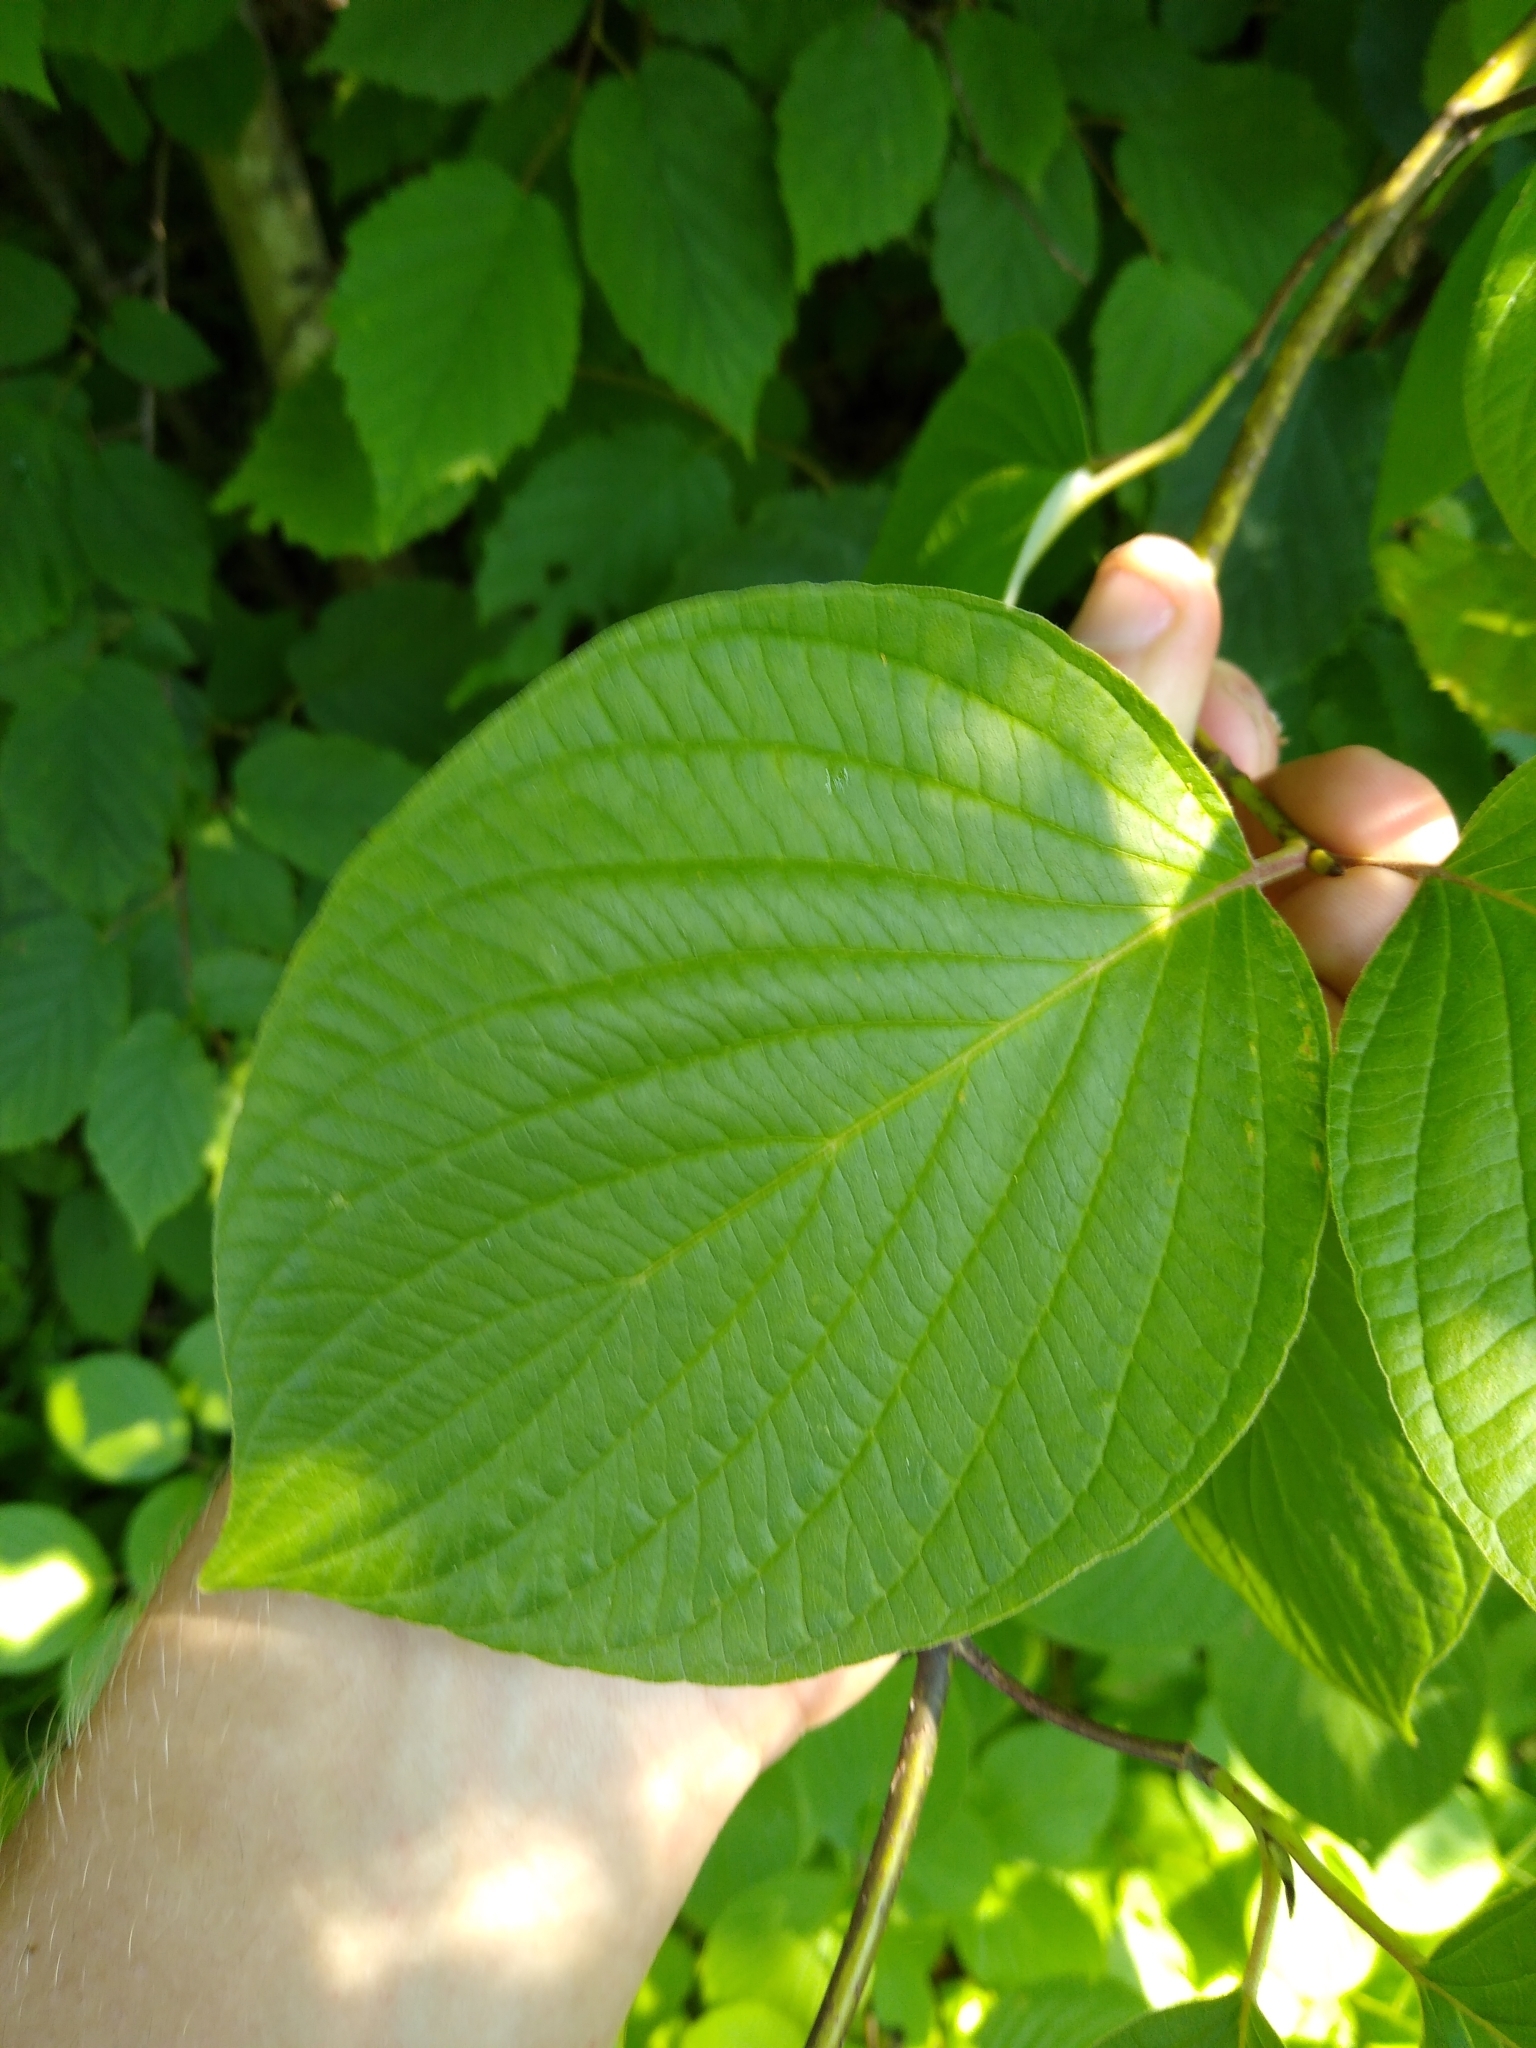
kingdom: Plantae
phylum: Tracheophyta
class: Magnoliopsida
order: Cornales
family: Cornaceae
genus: Cornus
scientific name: Cornus rugosa
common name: Round-leaf dogwood
